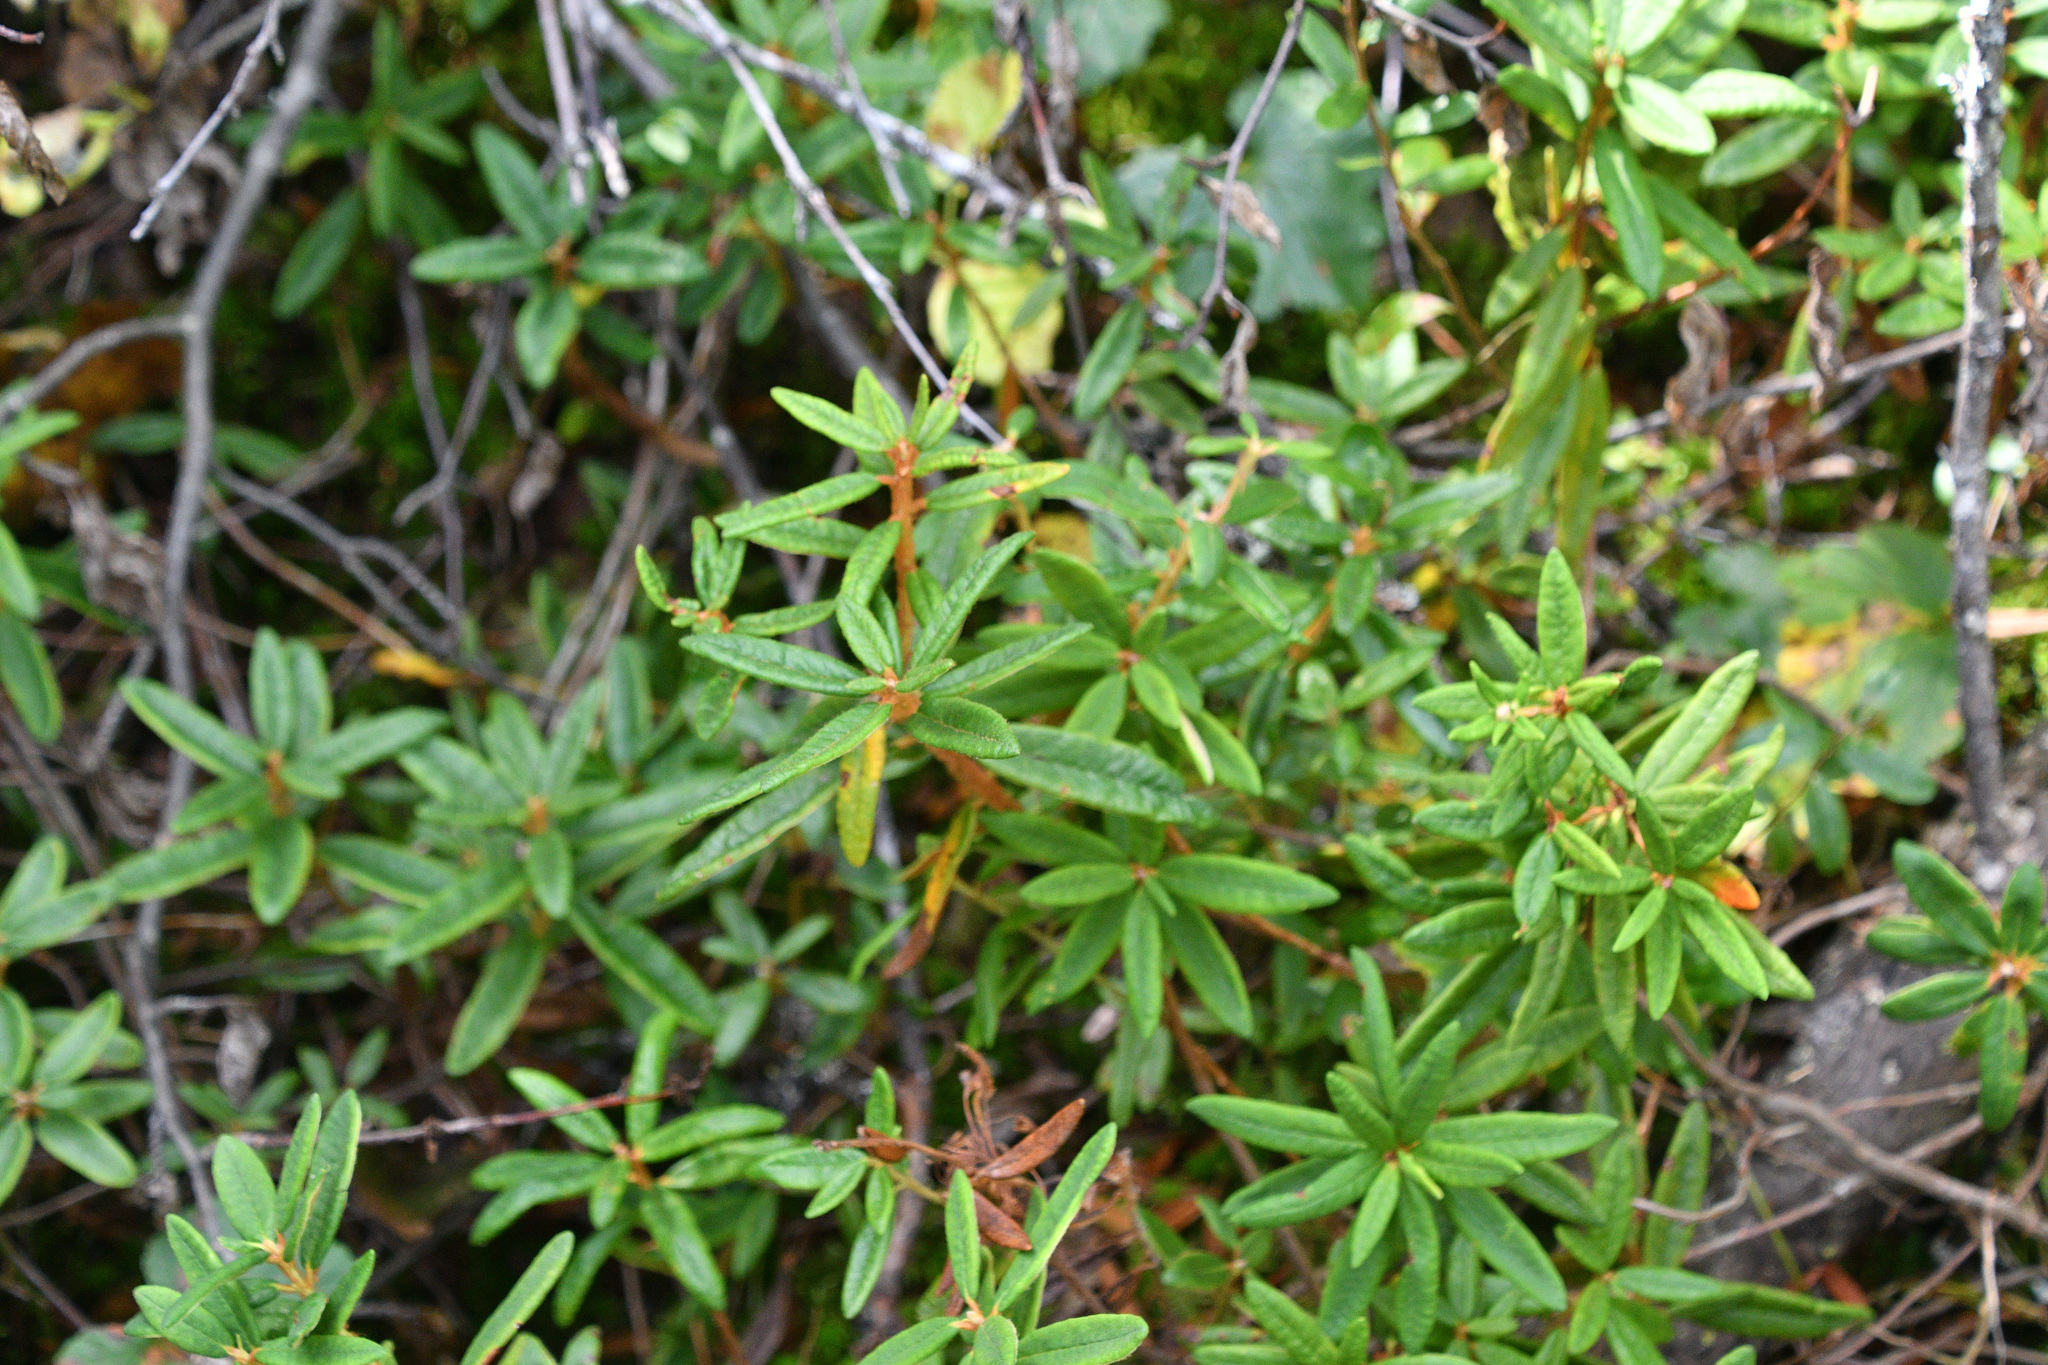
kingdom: Plantae
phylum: Tracheophyta
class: Magnoliopsida
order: Ericales
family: Ericaceae
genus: Rhododendron
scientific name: Rhododendron groenlandicum
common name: Bog labrador tea
